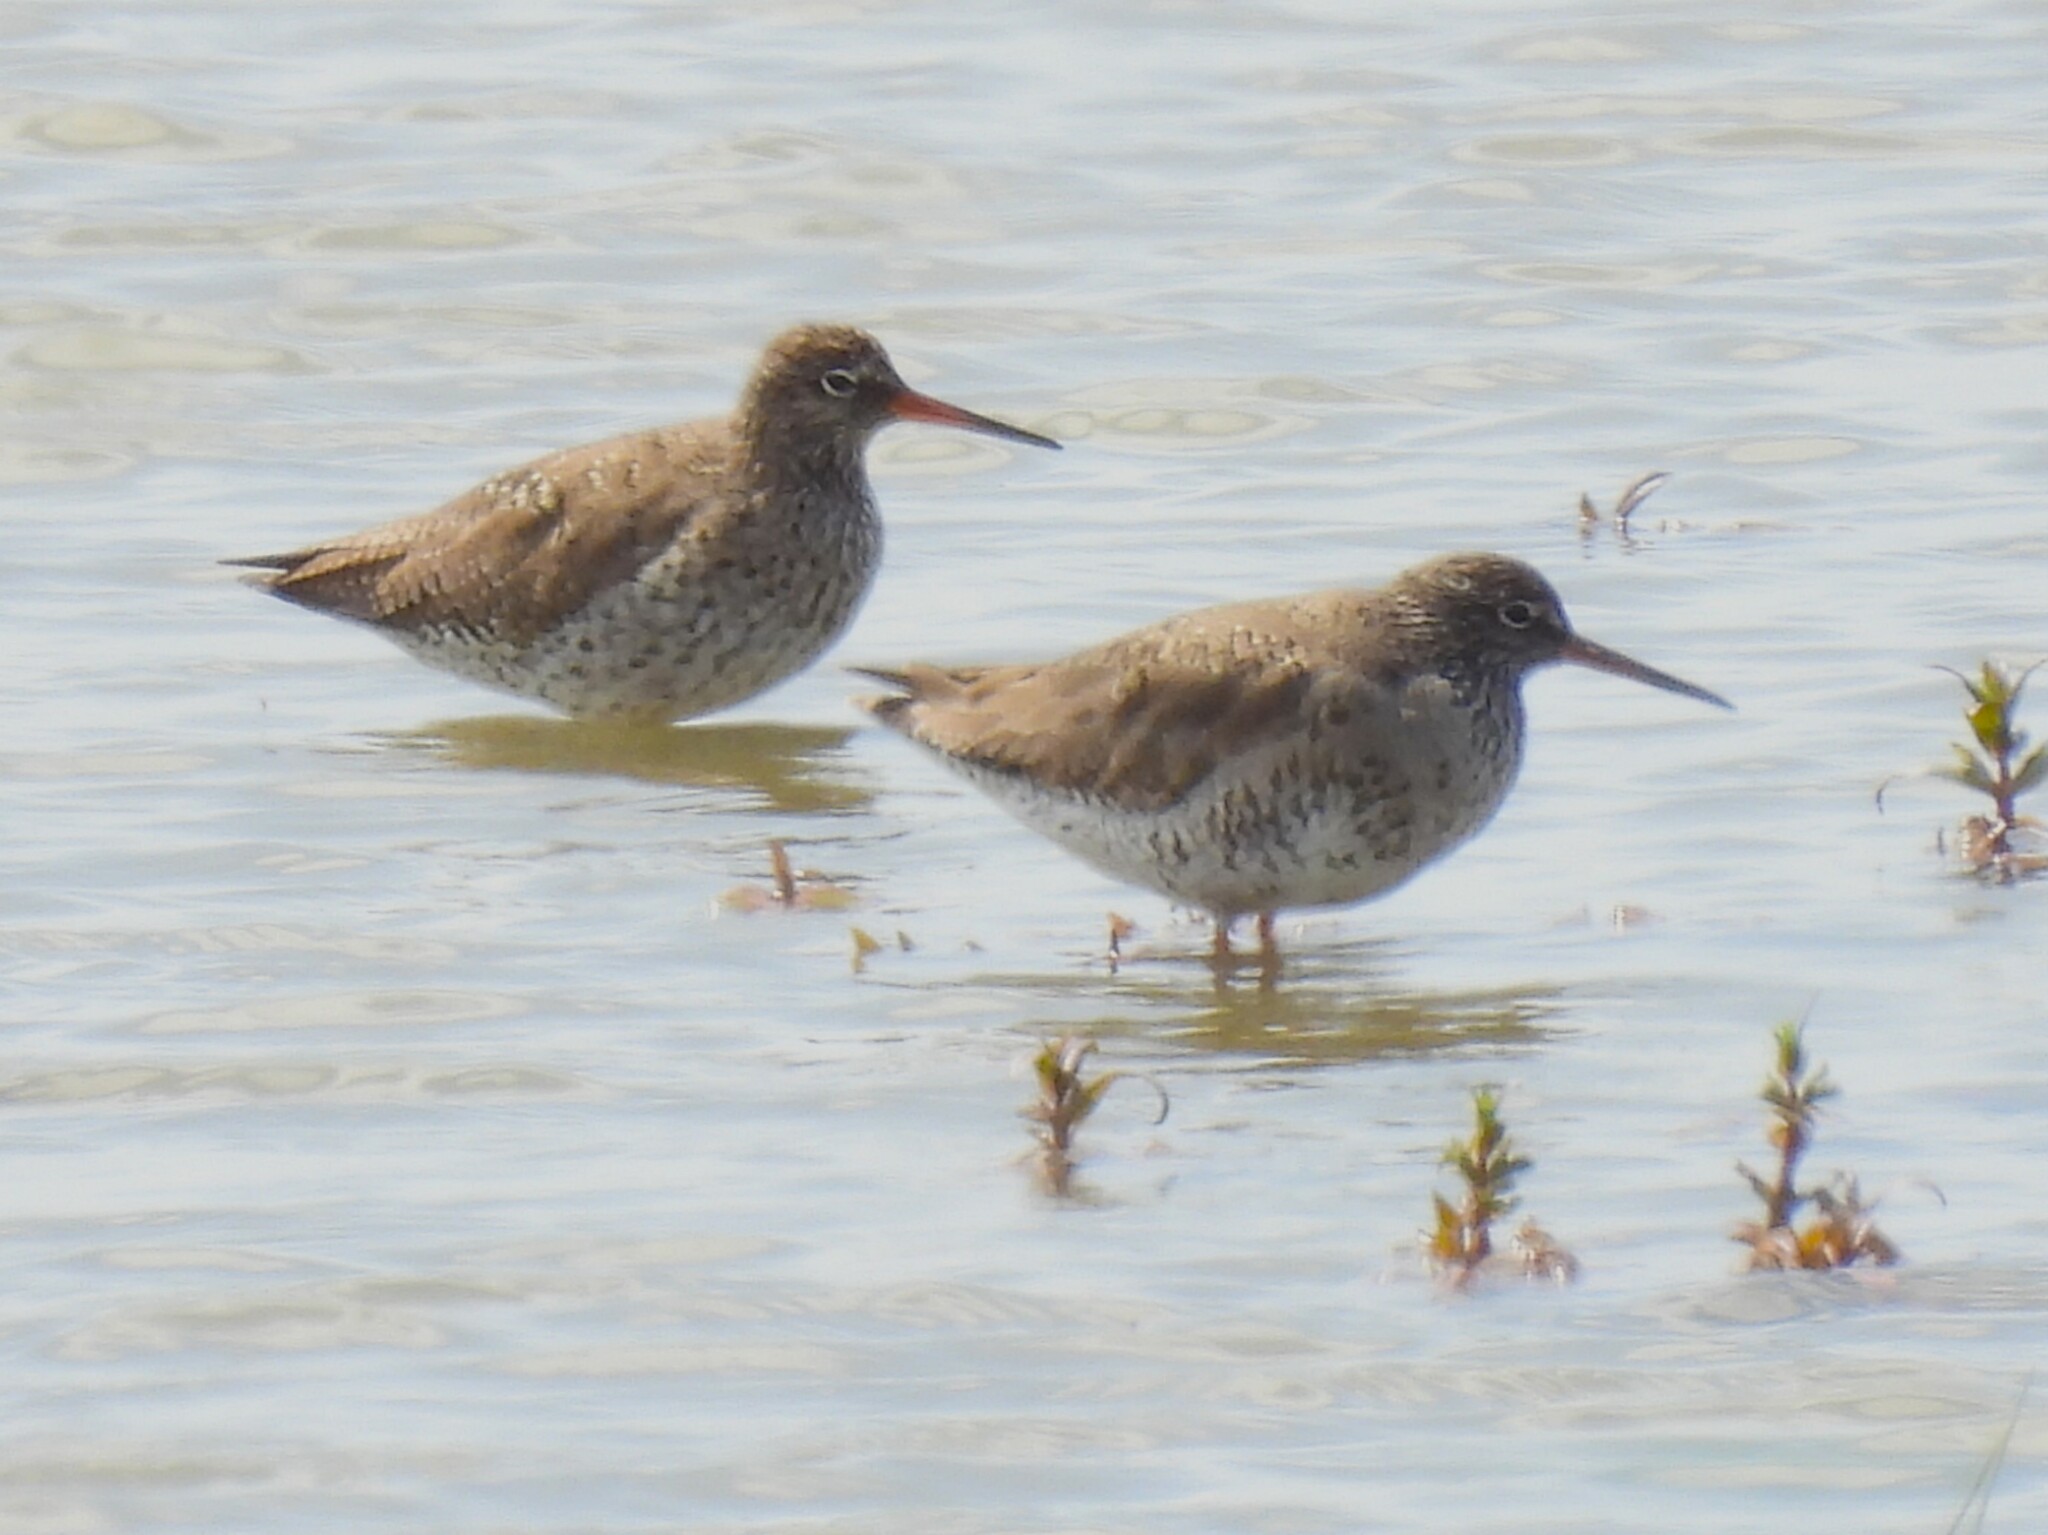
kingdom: Animalia
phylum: Chordata
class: Aves
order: Charadriiformes
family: Scolopacidae
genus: Tringa
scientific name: Tringa totanus
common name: Common redshank
